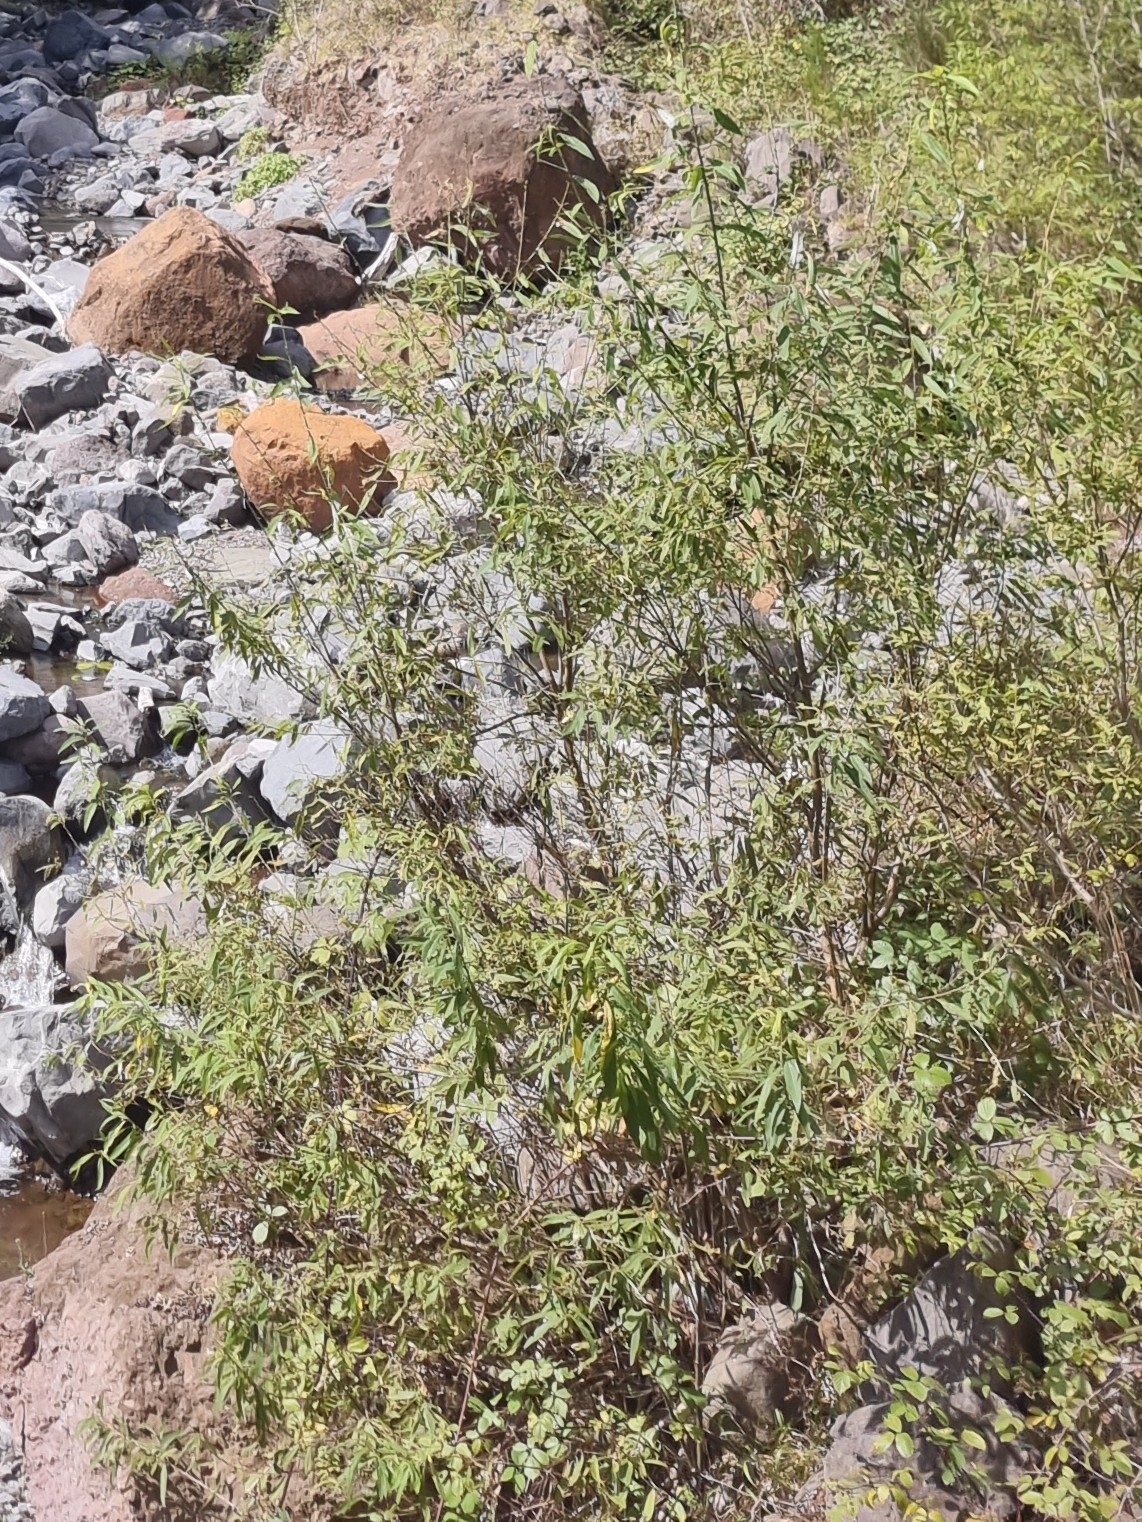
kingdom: Plantae
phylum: Tracheophyta
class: Magnoliopsida
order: Malpighiales
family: Salicaceae
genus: Salix
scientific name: Salix canariensis
